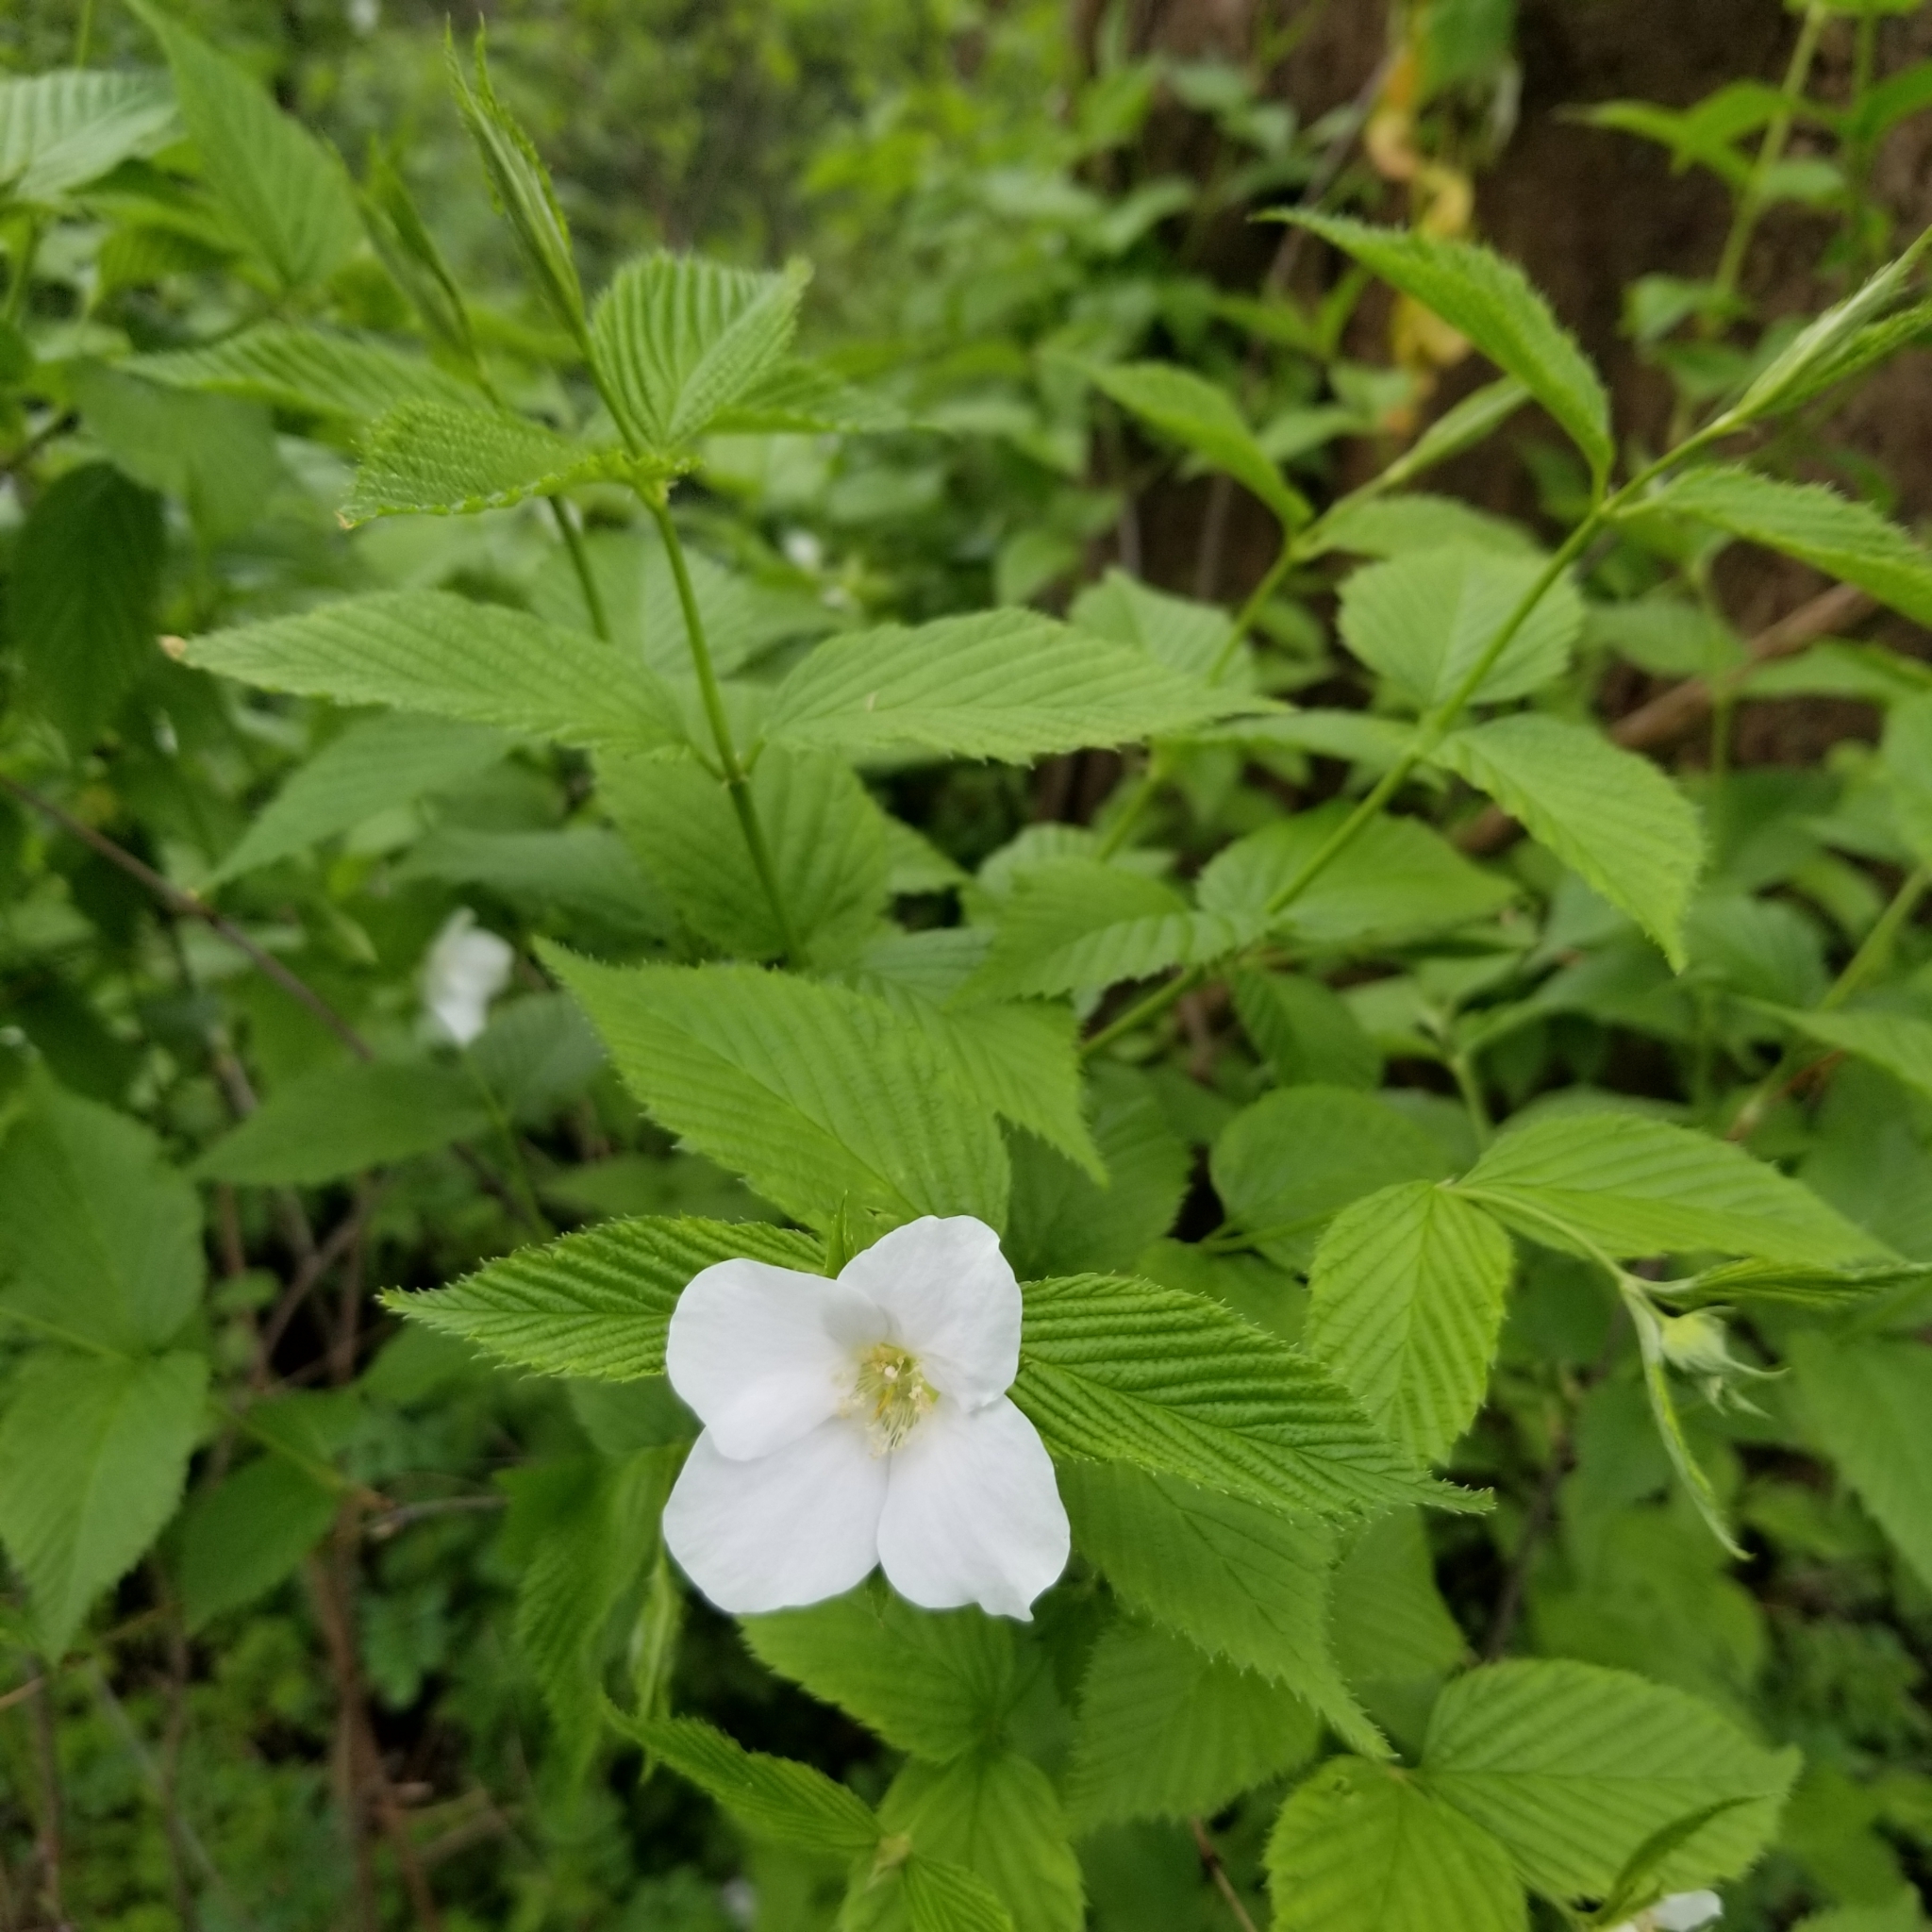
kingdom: Plantae
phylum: Tracheophyta
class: Magnoliopsida
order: Rosales
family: Rosaceae
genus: Rhodotypos
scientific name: Rhodotypos scandens
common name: Jetbead
